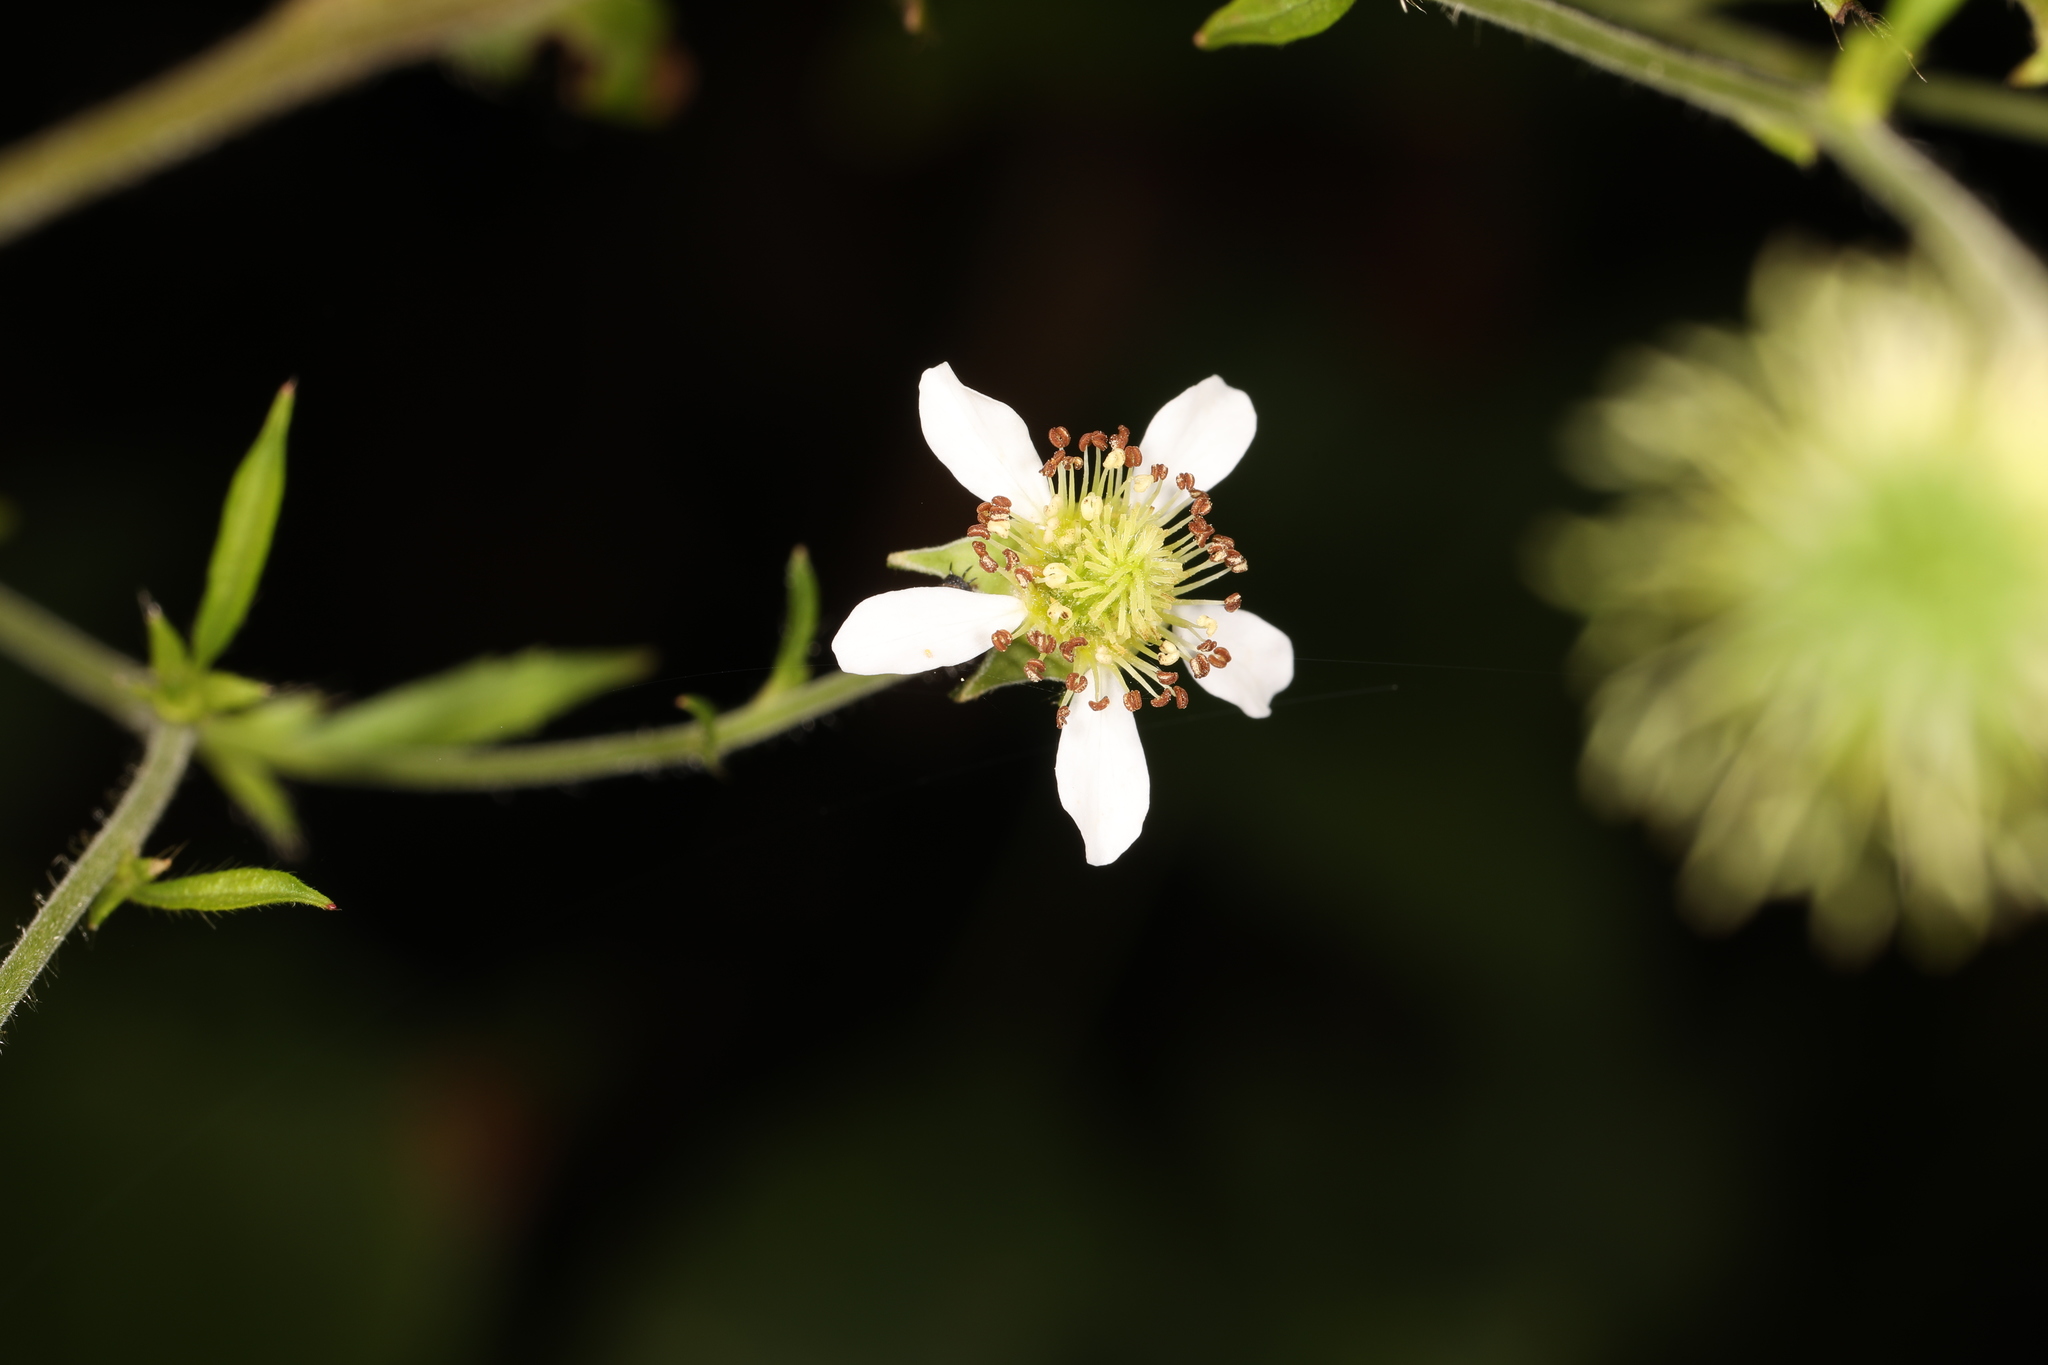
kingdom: Plantae
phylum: Tracheophyta
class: Magnoliopsida
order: Rosales
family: Rosaceae
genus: Geum
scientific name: Geum canadense
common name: White avens
